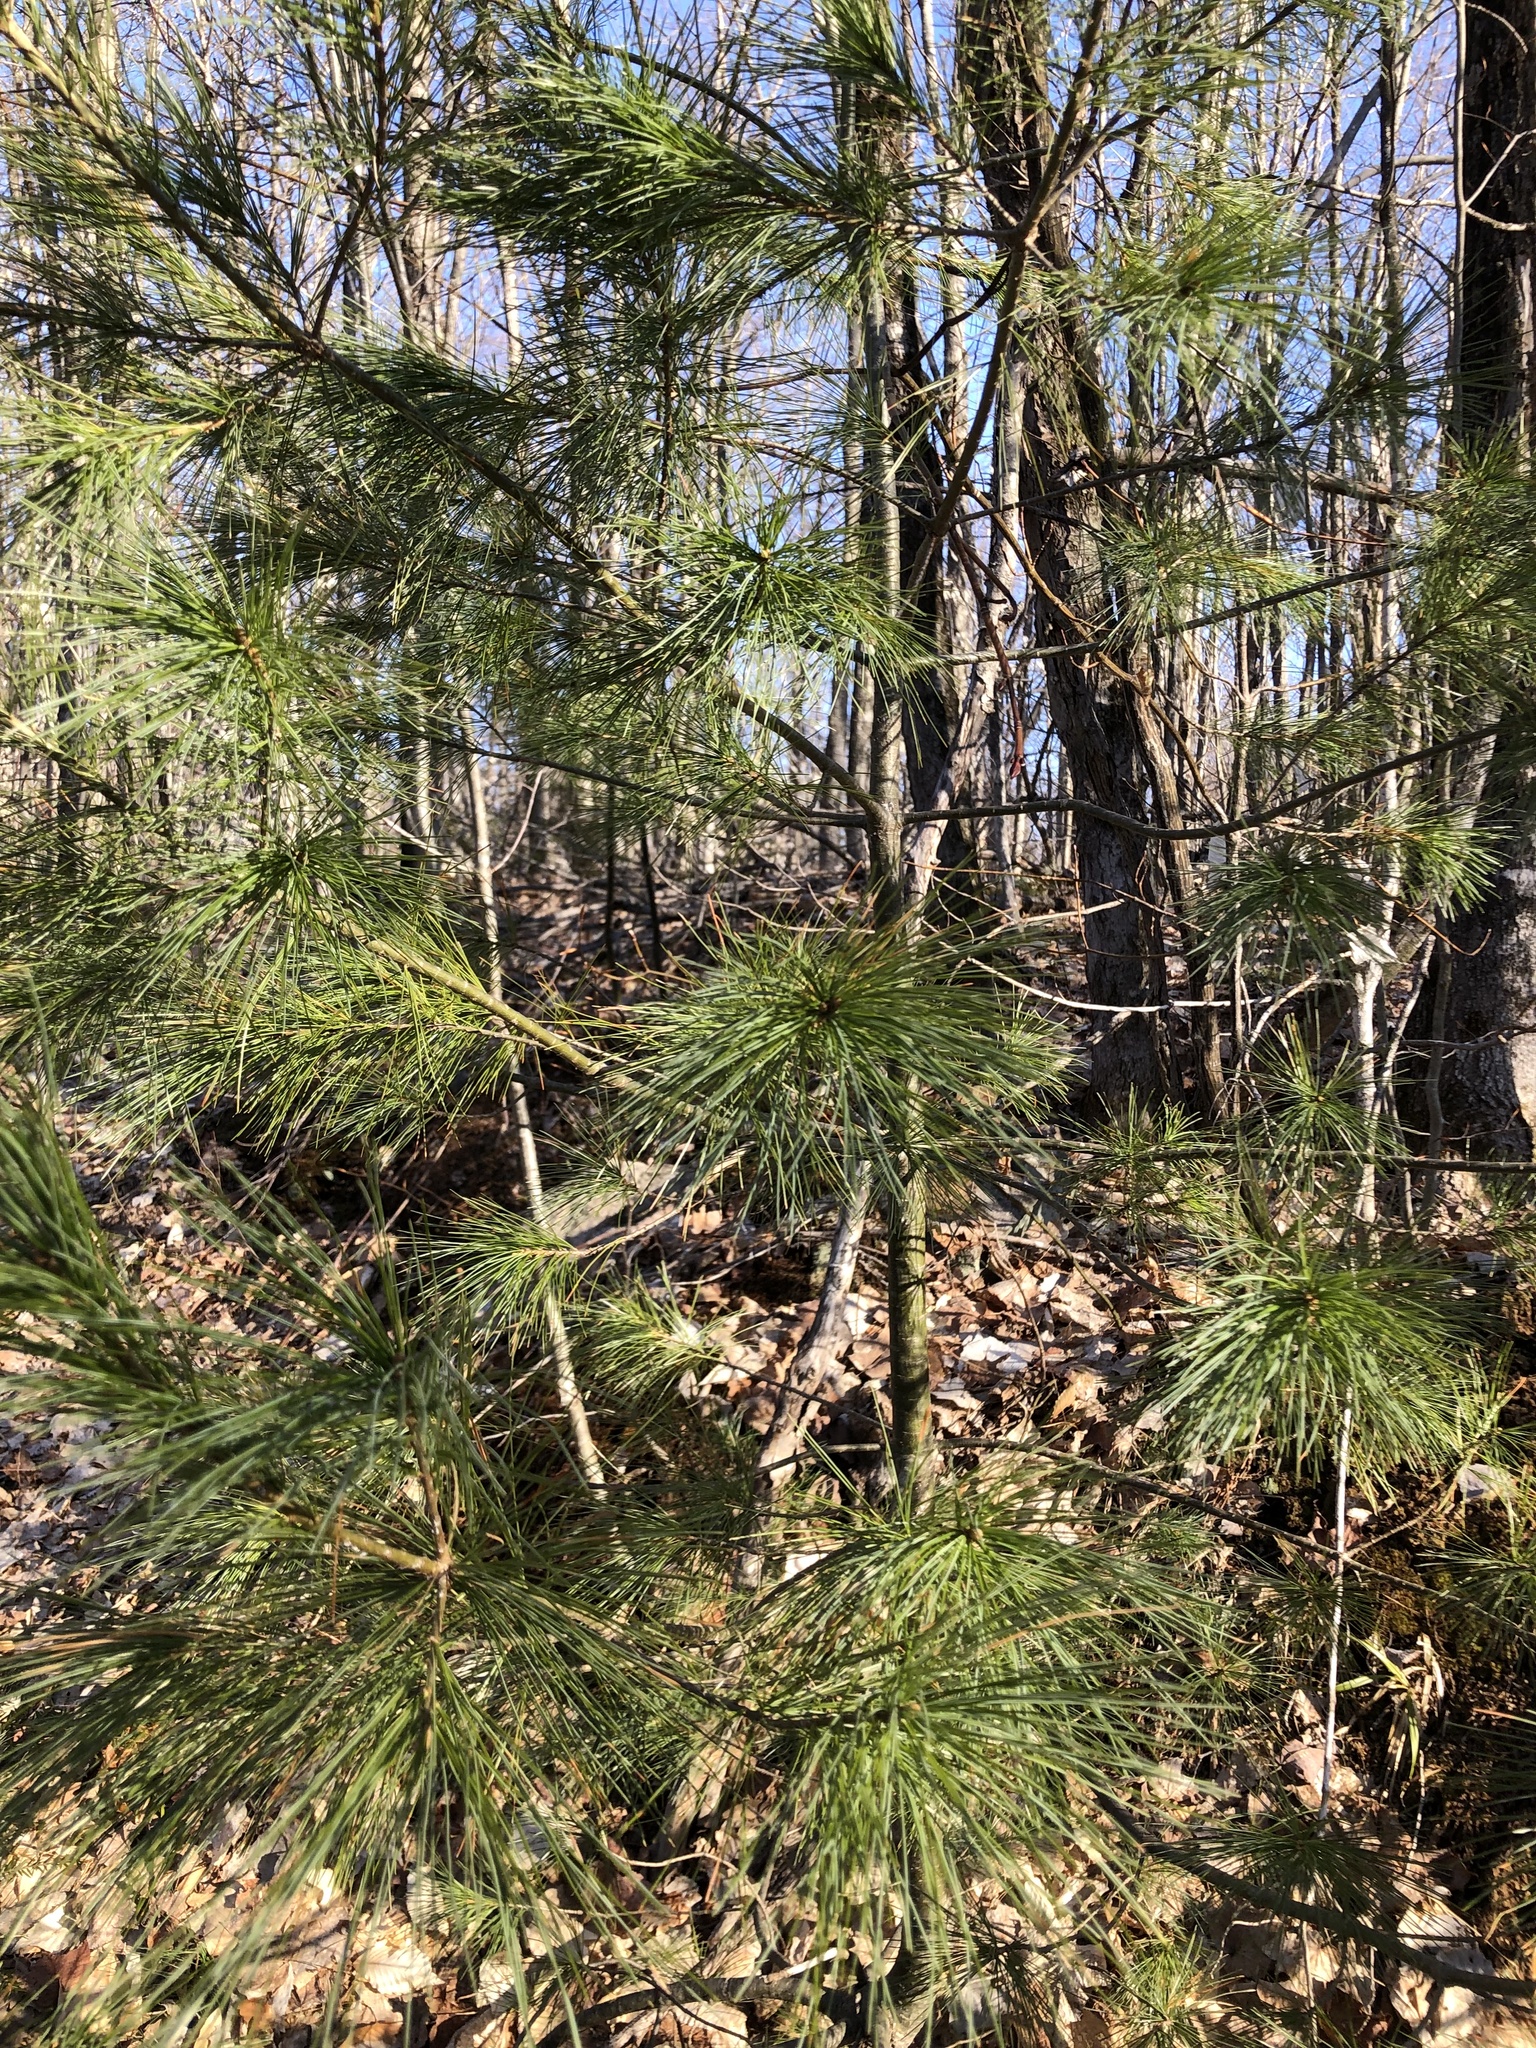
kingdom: Plantae
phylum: Tracheophyta
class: Pinopsida
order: Pinales
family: Pinaceae
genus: Pinus
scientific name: Pinus strobus
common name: Weymouth pine
